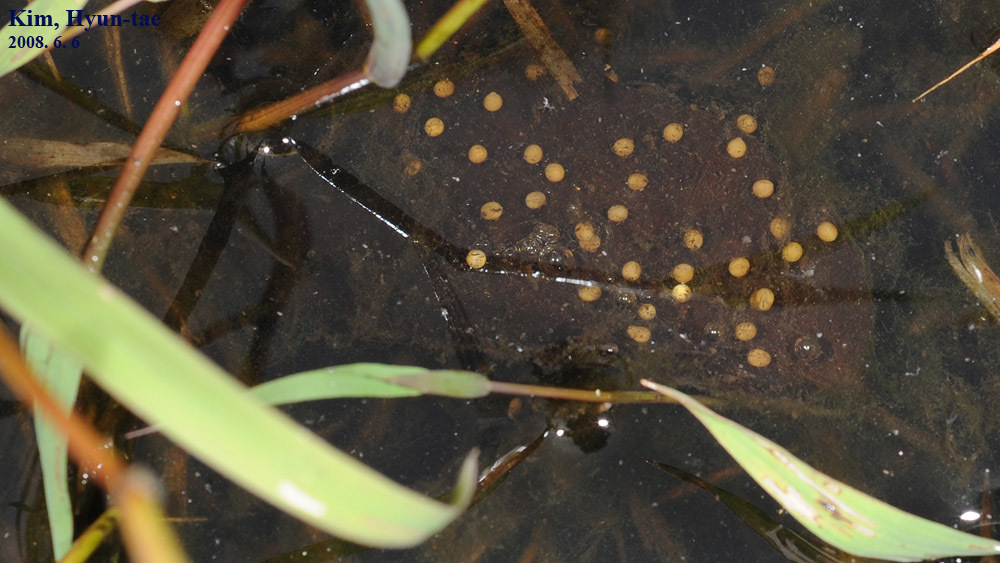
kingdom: Animalia
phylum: Chordata
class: Amphibia
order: Anura
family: Ranidae
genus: Pelophylax
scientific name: Pelophylax chosenicus
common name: Gold-spotted pond frog
